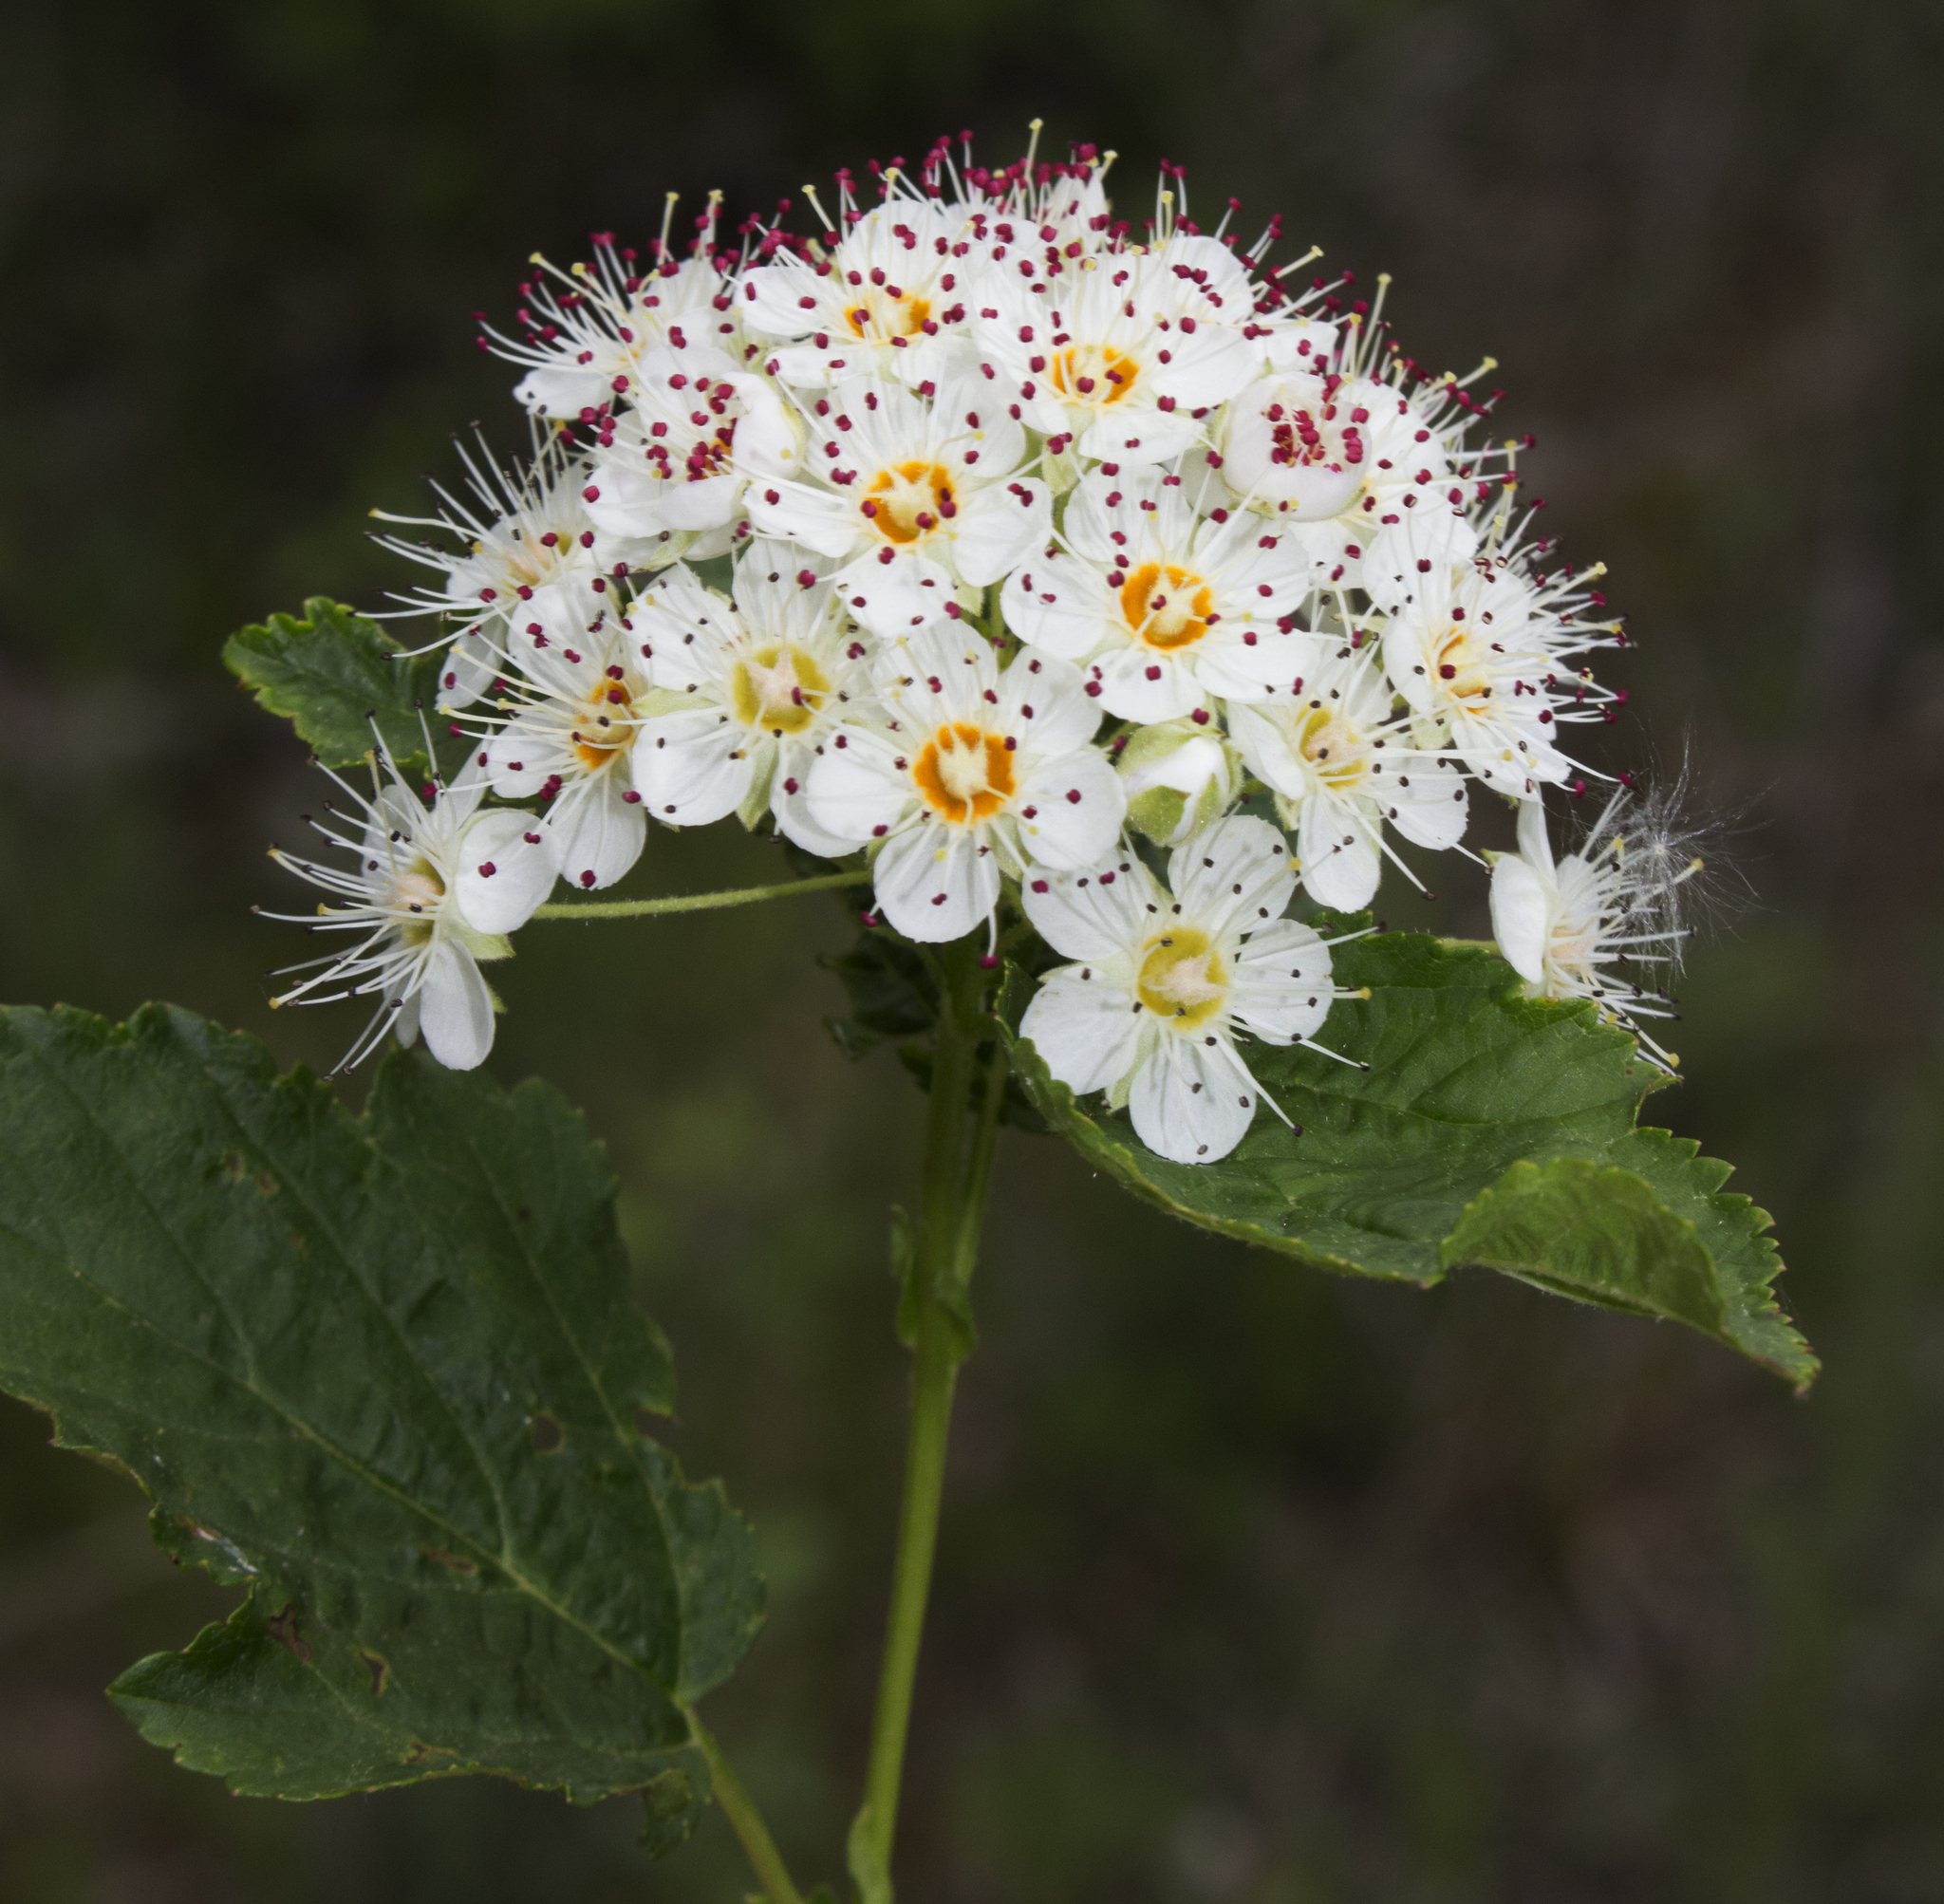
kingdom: Plantae
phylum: Tracheophyta
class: Magnoliopsida
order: Rosales
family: Rosaceae
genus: Physocarpus
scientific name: Physocarpus intermedius
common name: Midwestern ninebark
